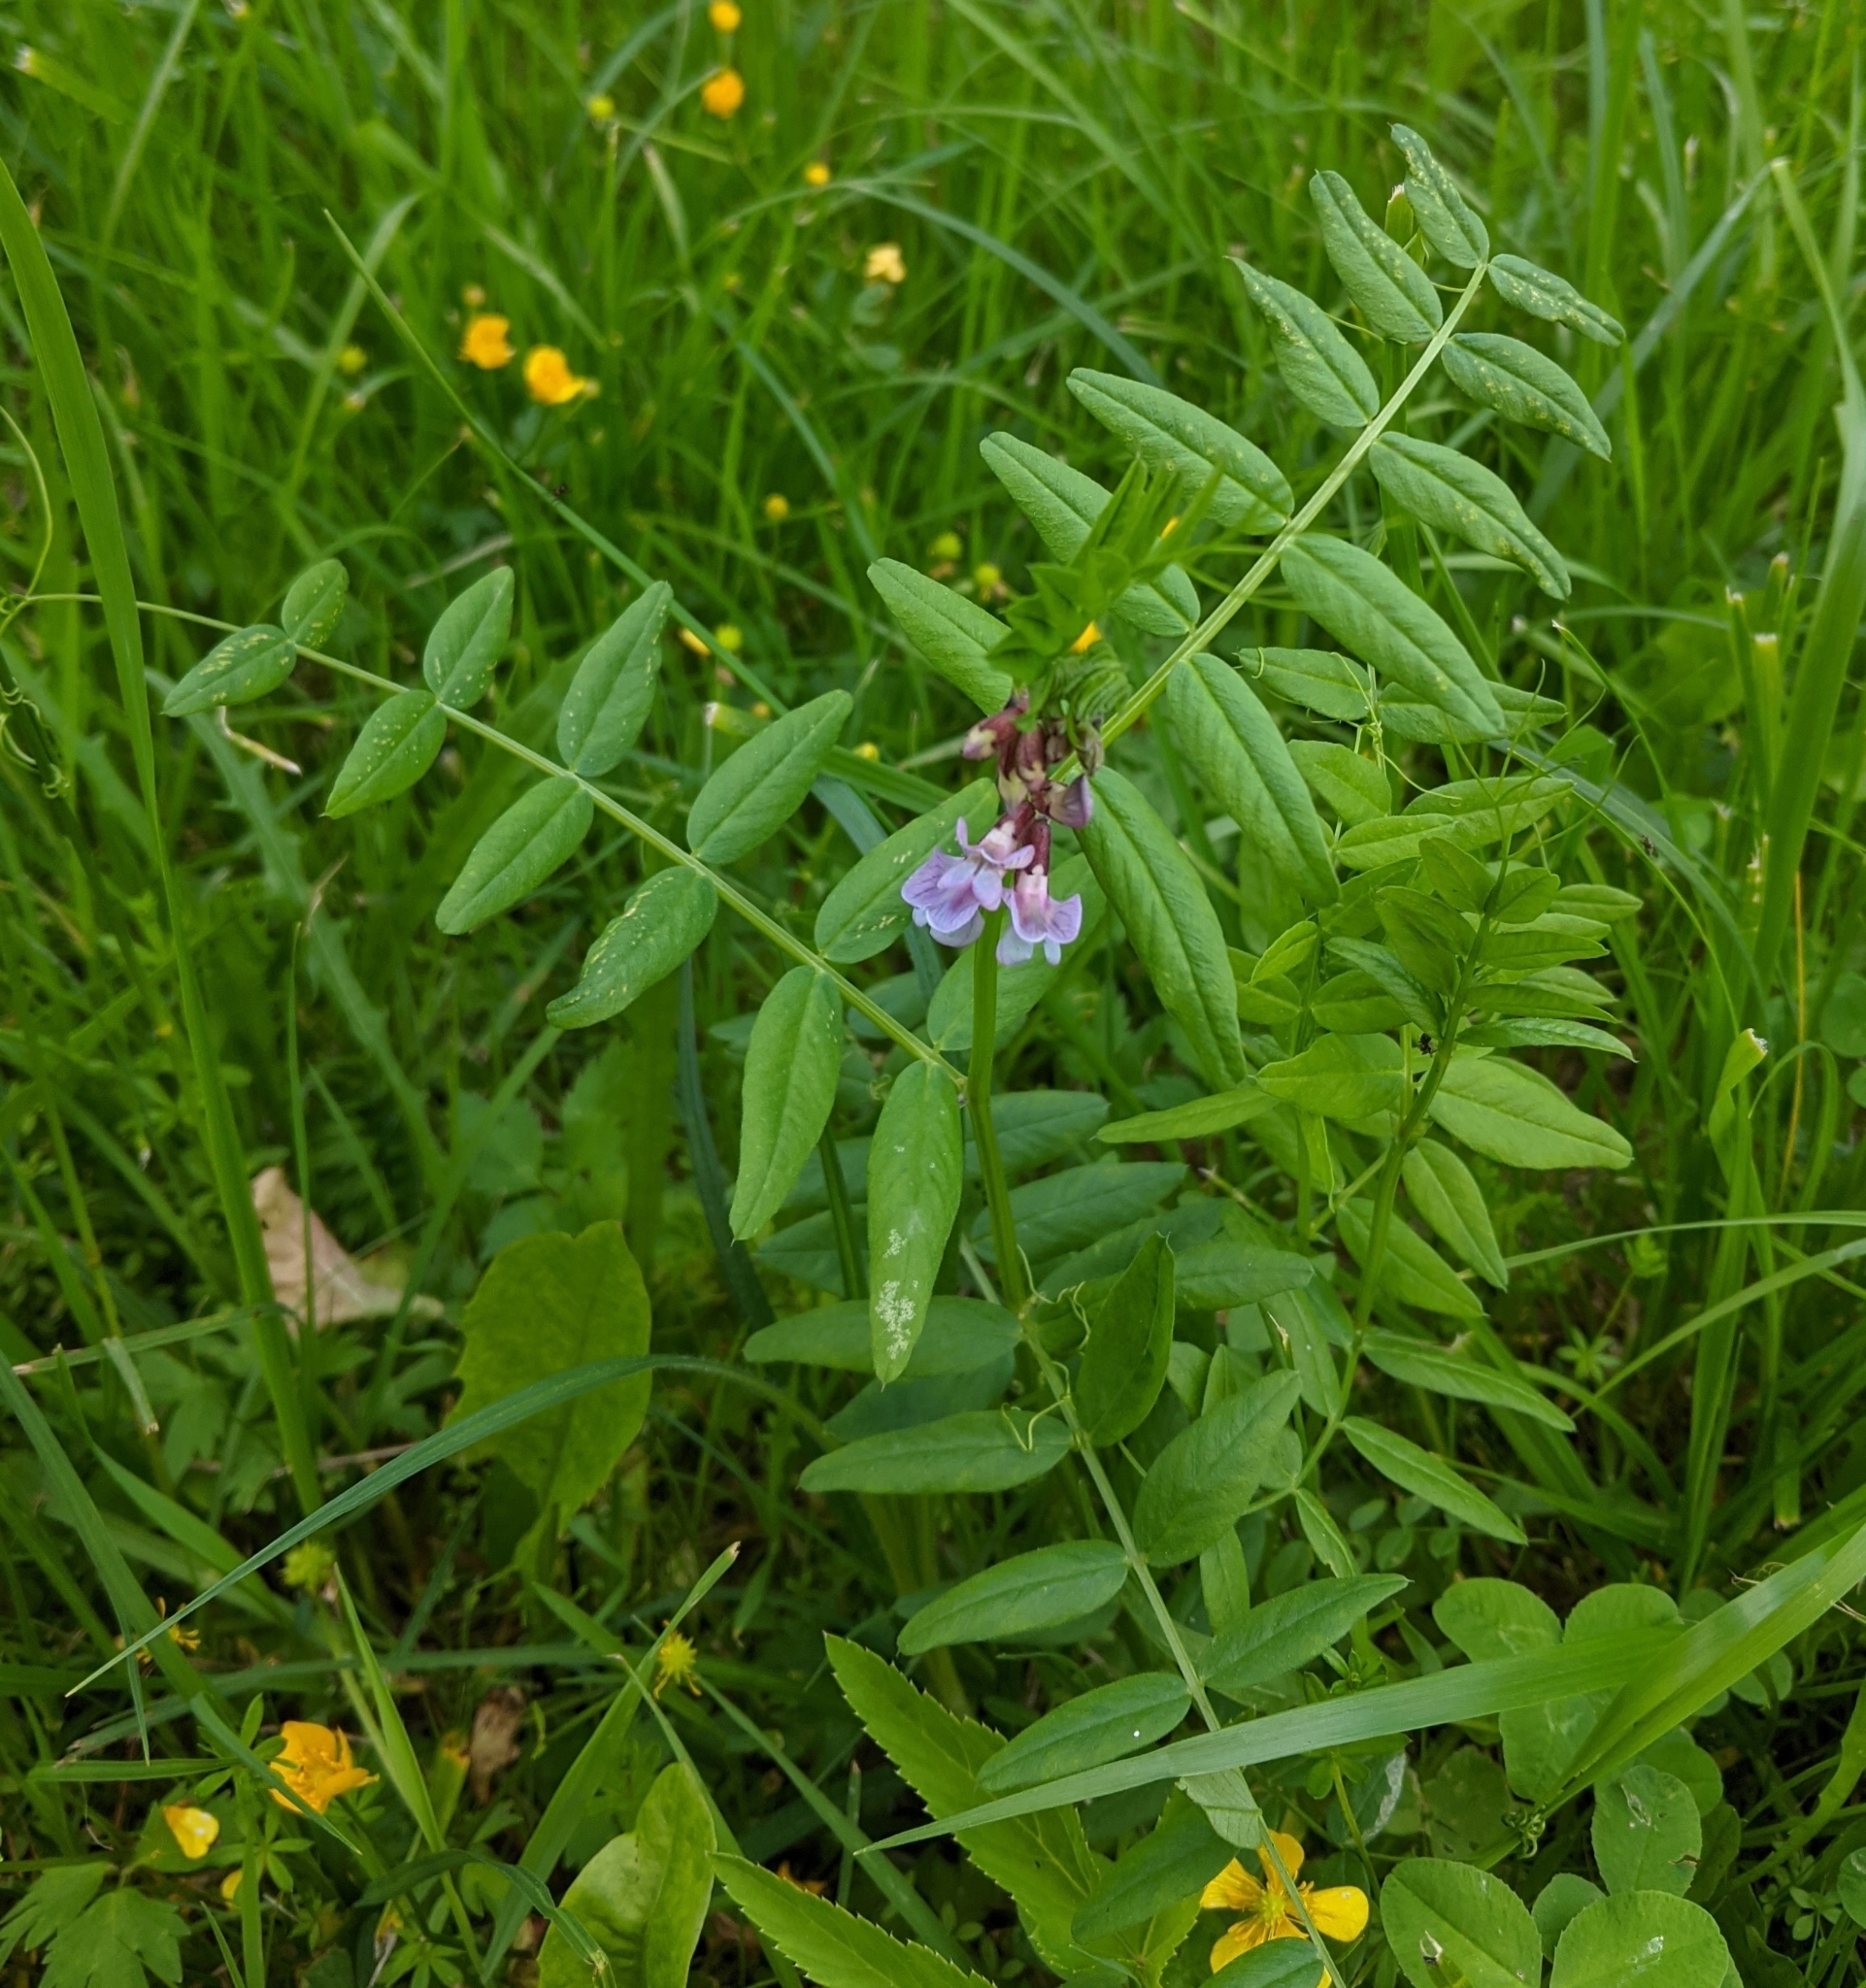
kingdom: Plantae
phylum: Tracheophyta
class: Magnoliopsida
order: Fabales
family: Fabaceae
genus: Vicia
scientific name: Vicia sepium
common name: Bush vetch
